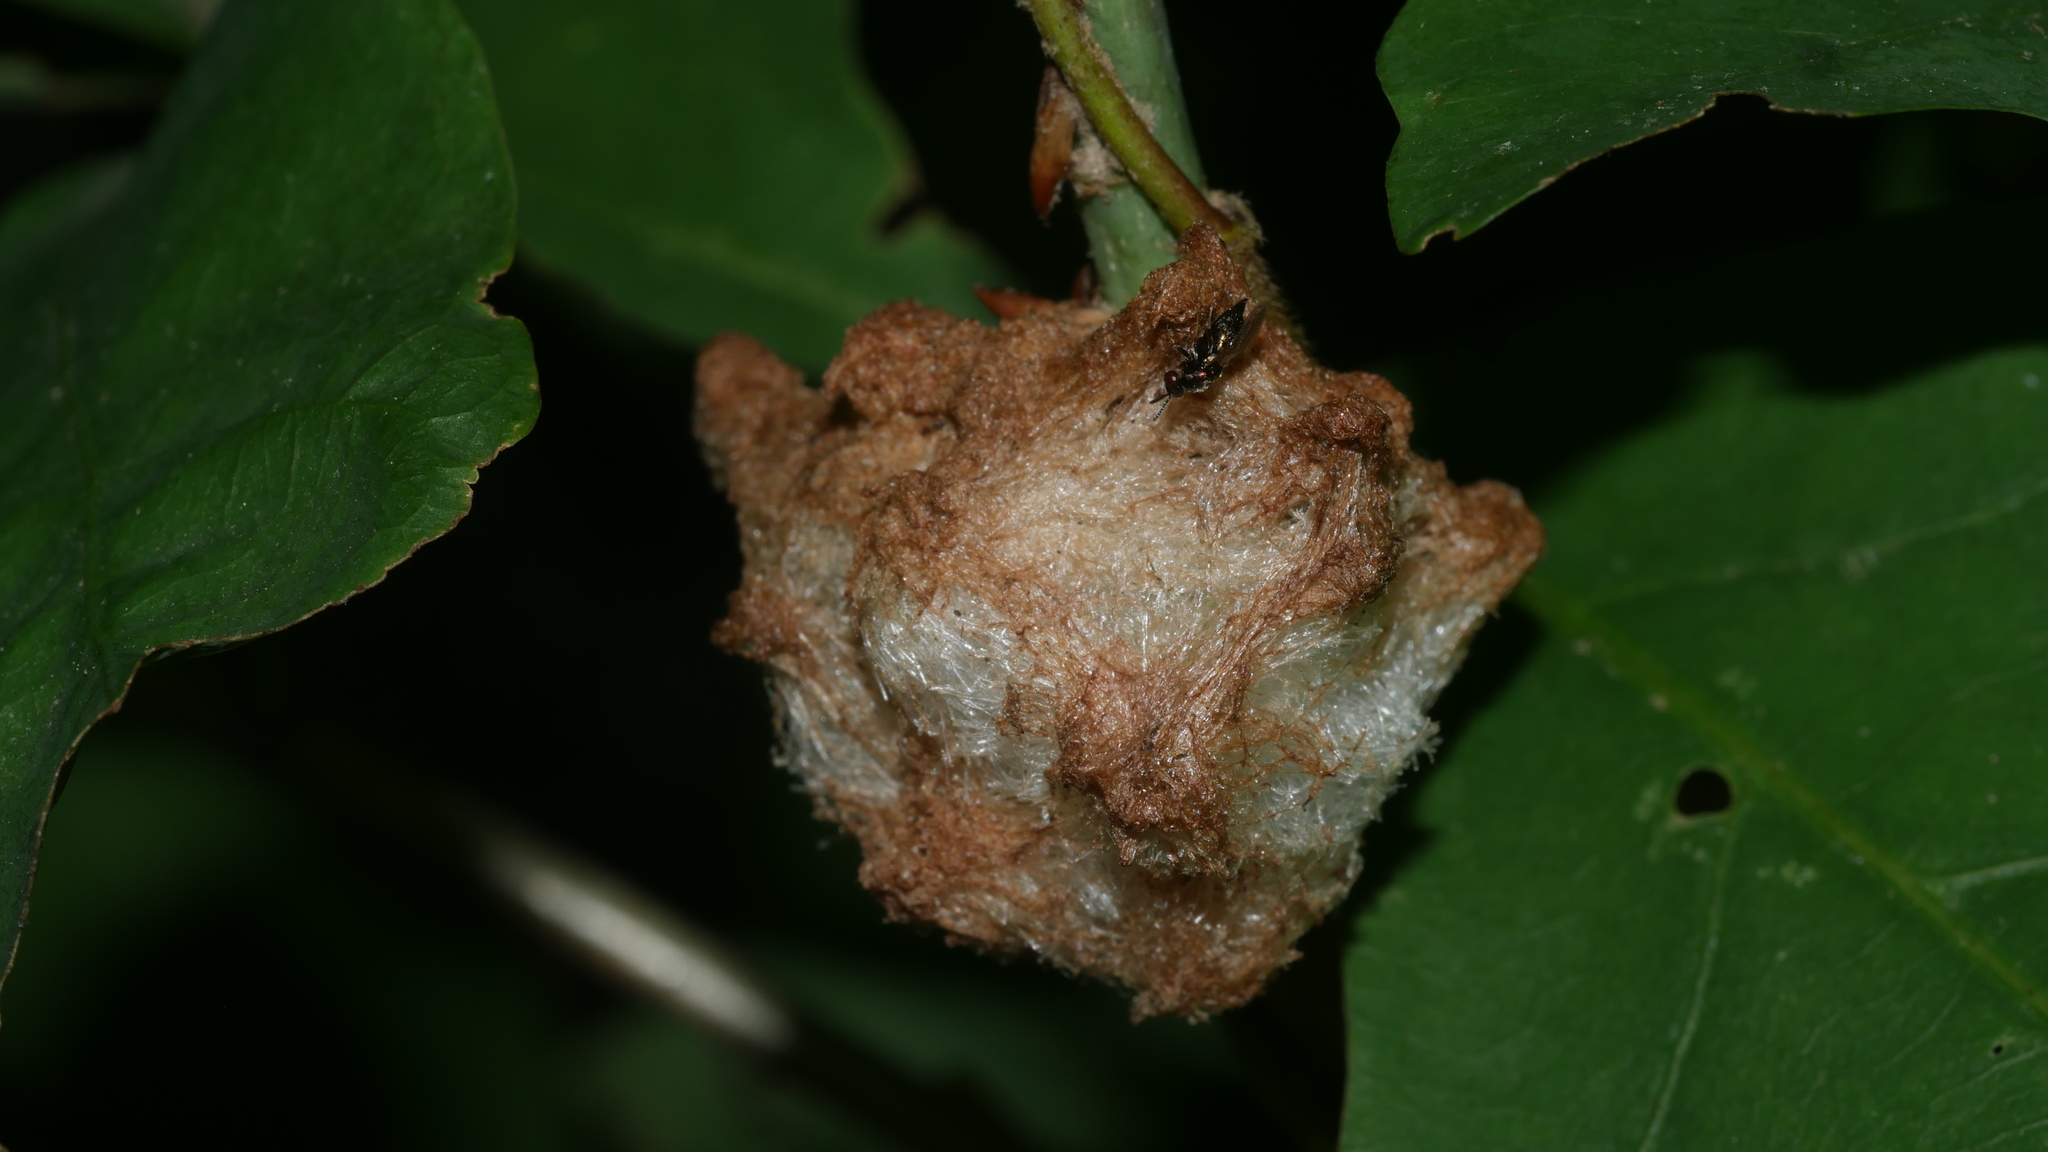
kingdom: Animalia
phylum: Arthropoda
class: Insecta
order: Hymenoptera
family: Cynipidae
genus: Callirhytis
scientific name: Callirhytis
